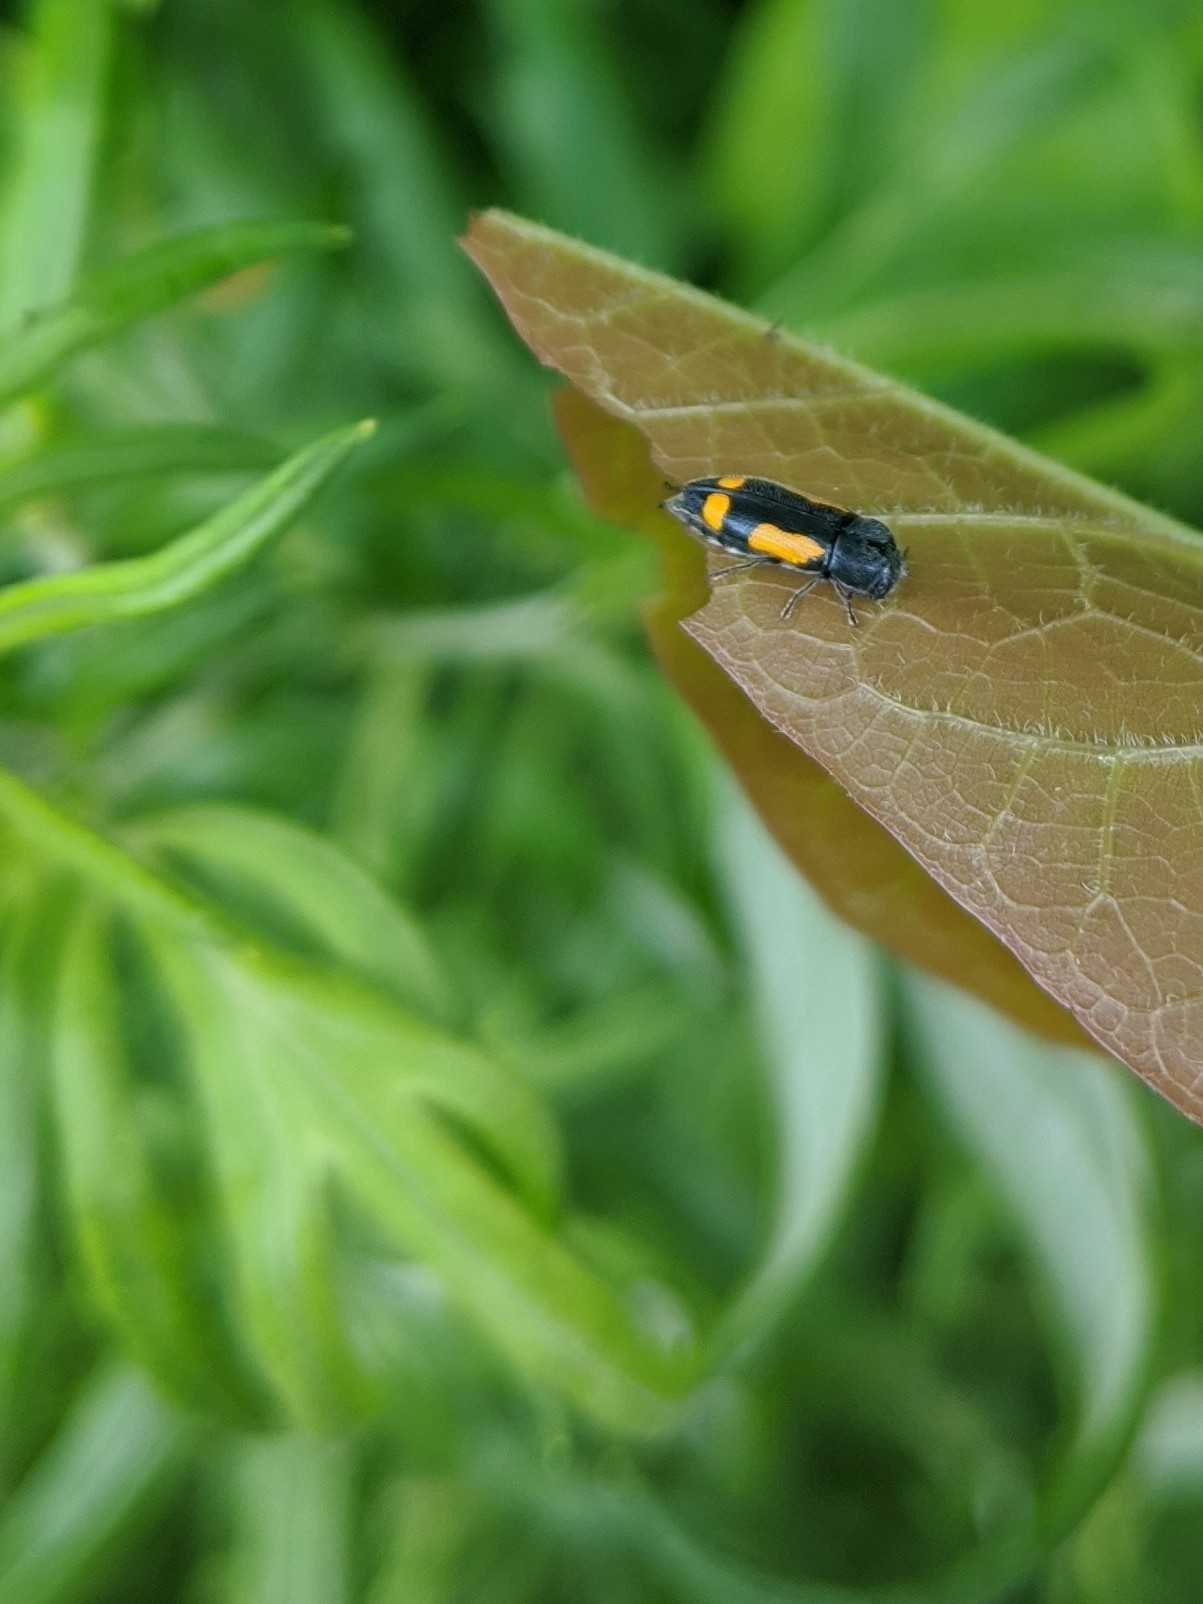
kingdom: Animalia
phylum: Arthropoda
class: Insecta
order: Coleoptera
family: Buprestidae
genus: Ptosima
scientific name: Ptosima gibbicollis
